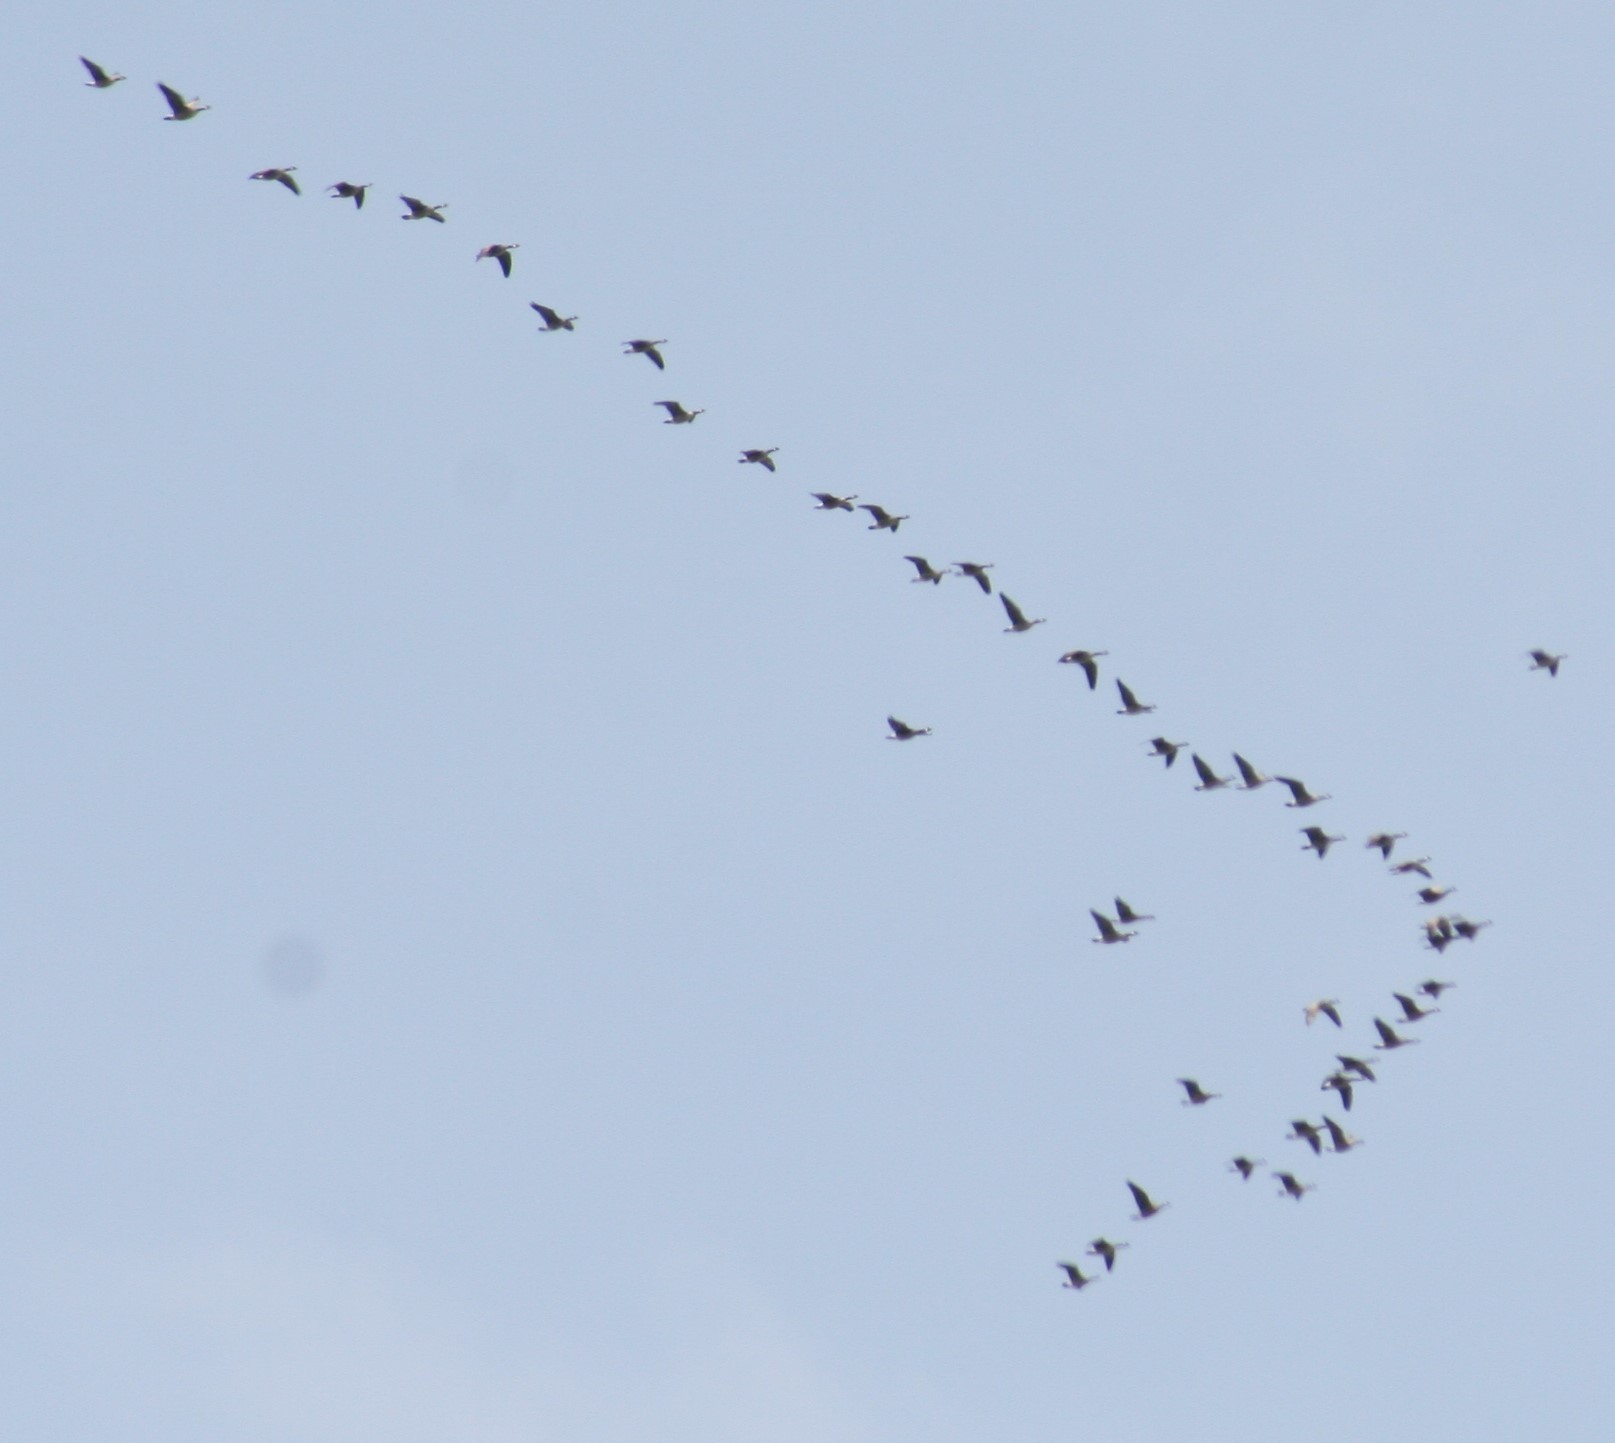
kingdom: Animalia
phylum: Chordata
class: Aves
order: Anseriformes
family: Anatidae
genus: Branta
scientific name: Branta canadensis
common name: Canada goose
